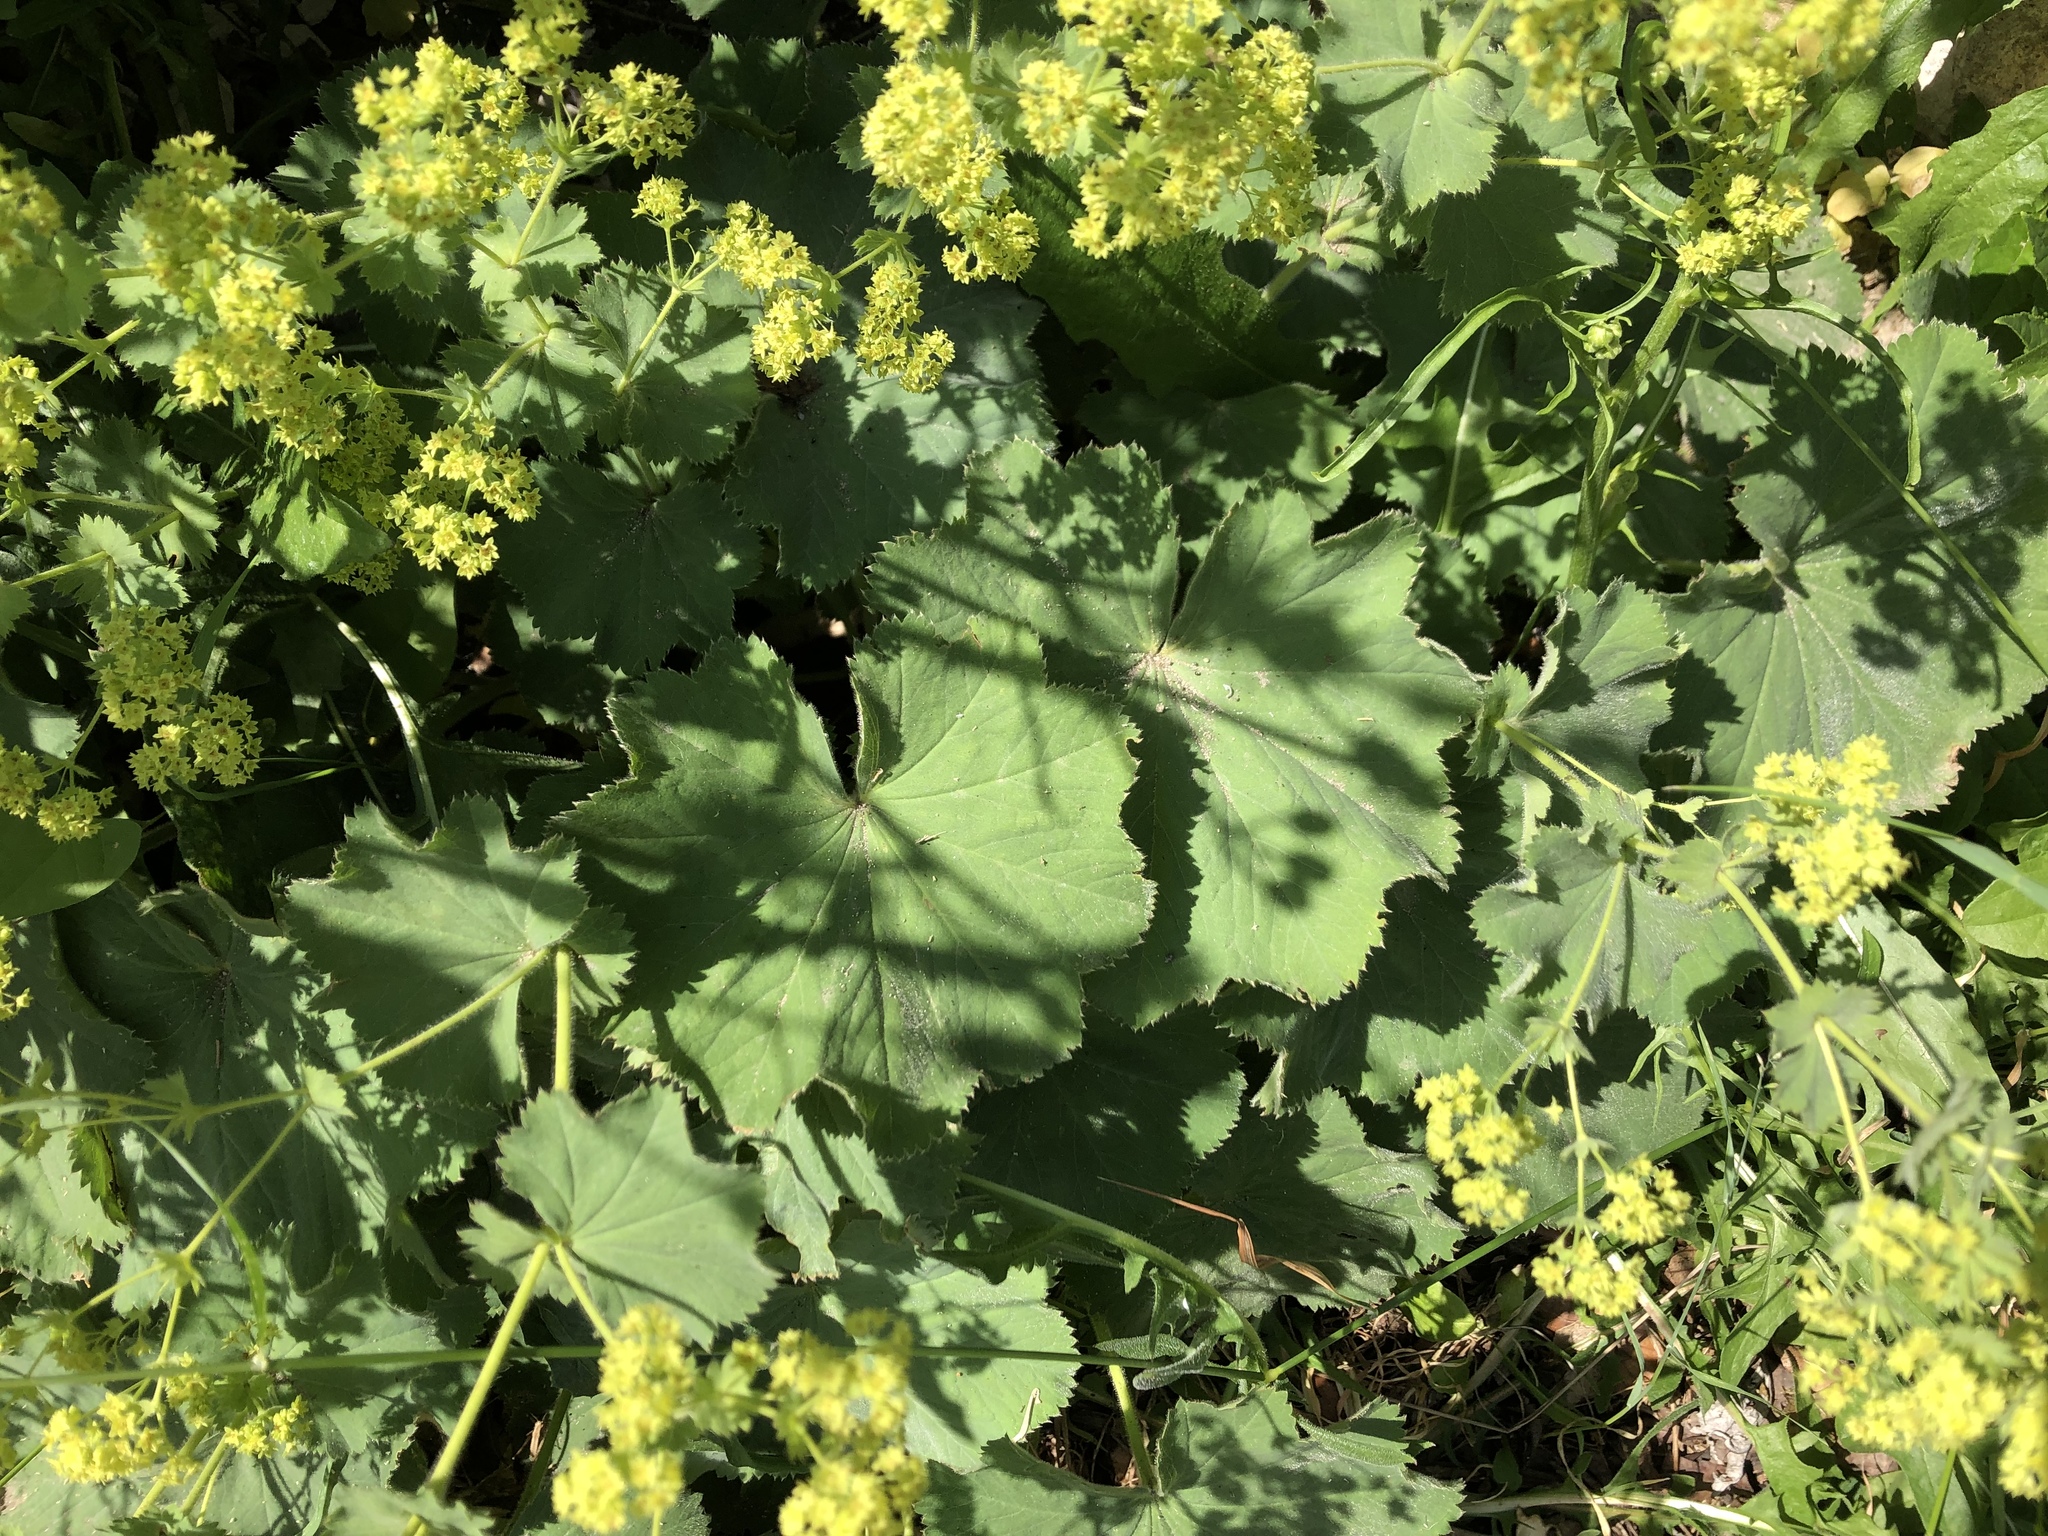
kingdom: Plantae
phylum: Tracheophyta
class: Magnoliopsida
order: Rosales
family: Rosaceae
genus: Alchemilla
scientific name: Alchemilla mollis
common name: Lady's-mantle
